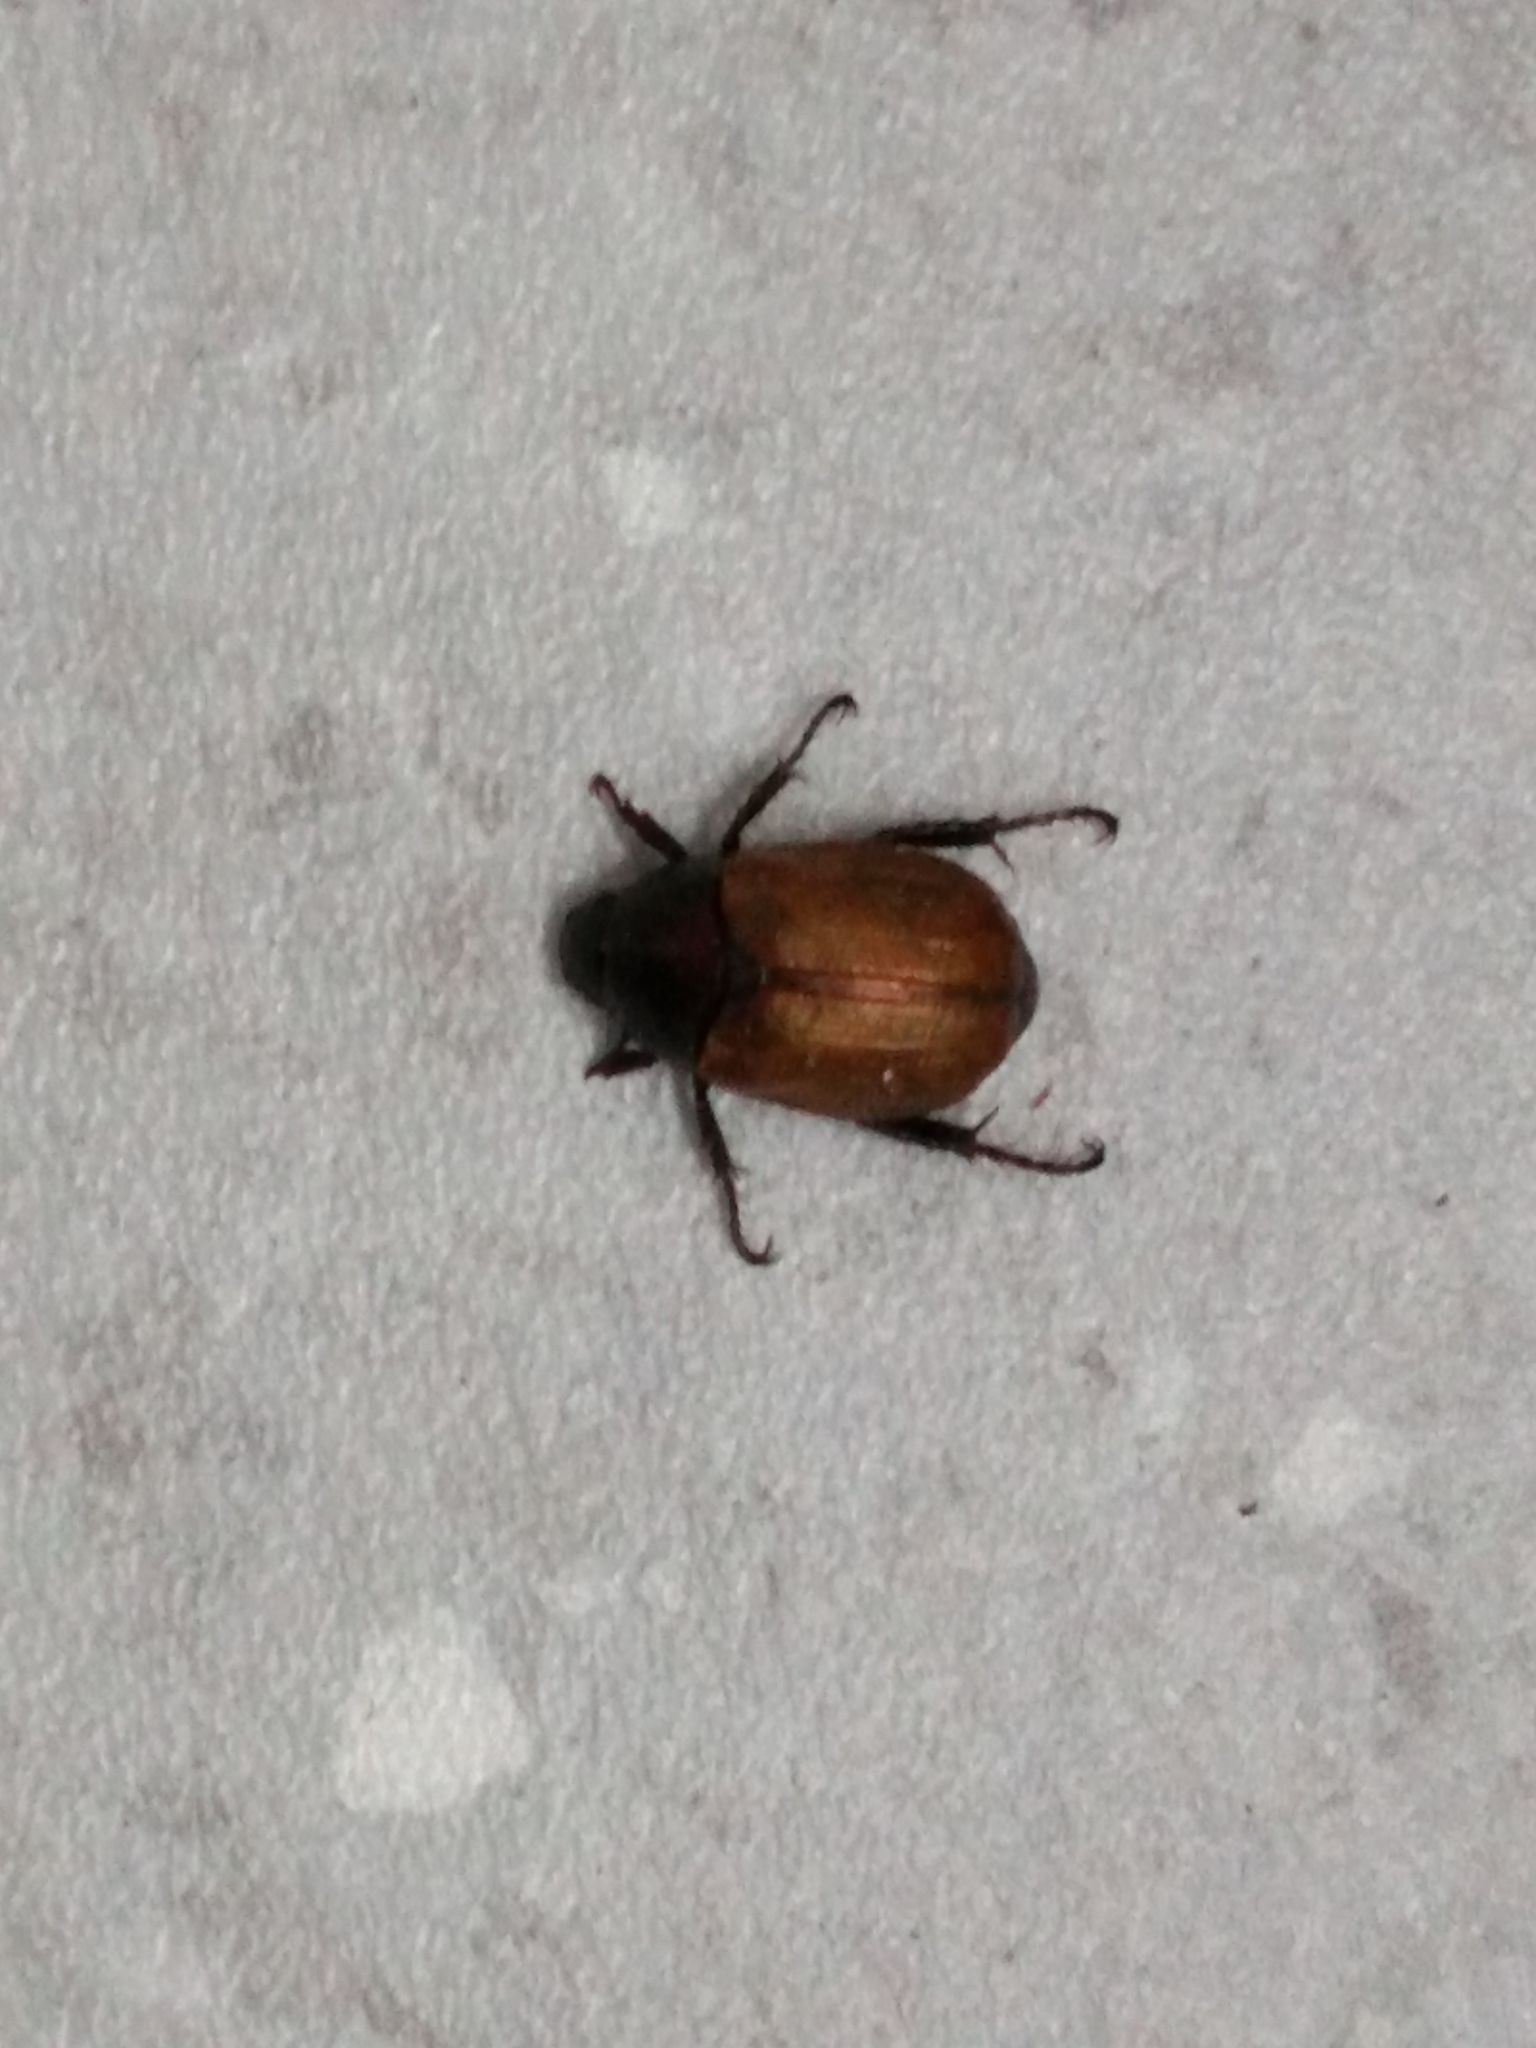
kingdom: Animalia
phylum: Arthropoda
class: Insecta
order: Coleoptera
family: Scarabaeidae
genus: Anomala
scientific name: Anomala dubia
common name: Dune chafer
